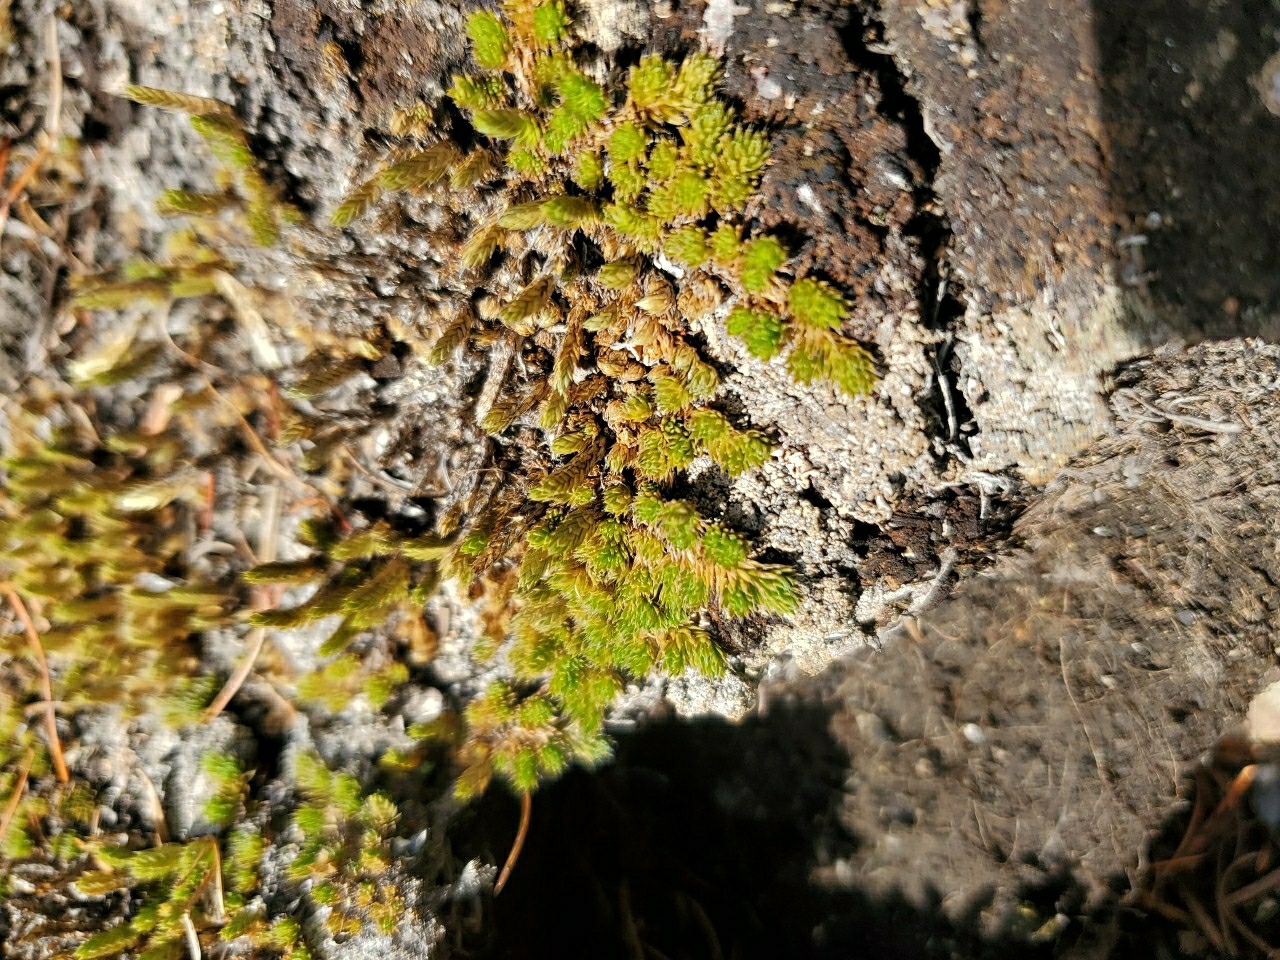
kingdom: Plantae
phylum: Tracheophyta
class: Lycopodiopsida
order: Selaginellales
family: Selaginellaceae
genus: Selaginella
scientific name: Selaginella densa
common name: Mountain spike-moss
